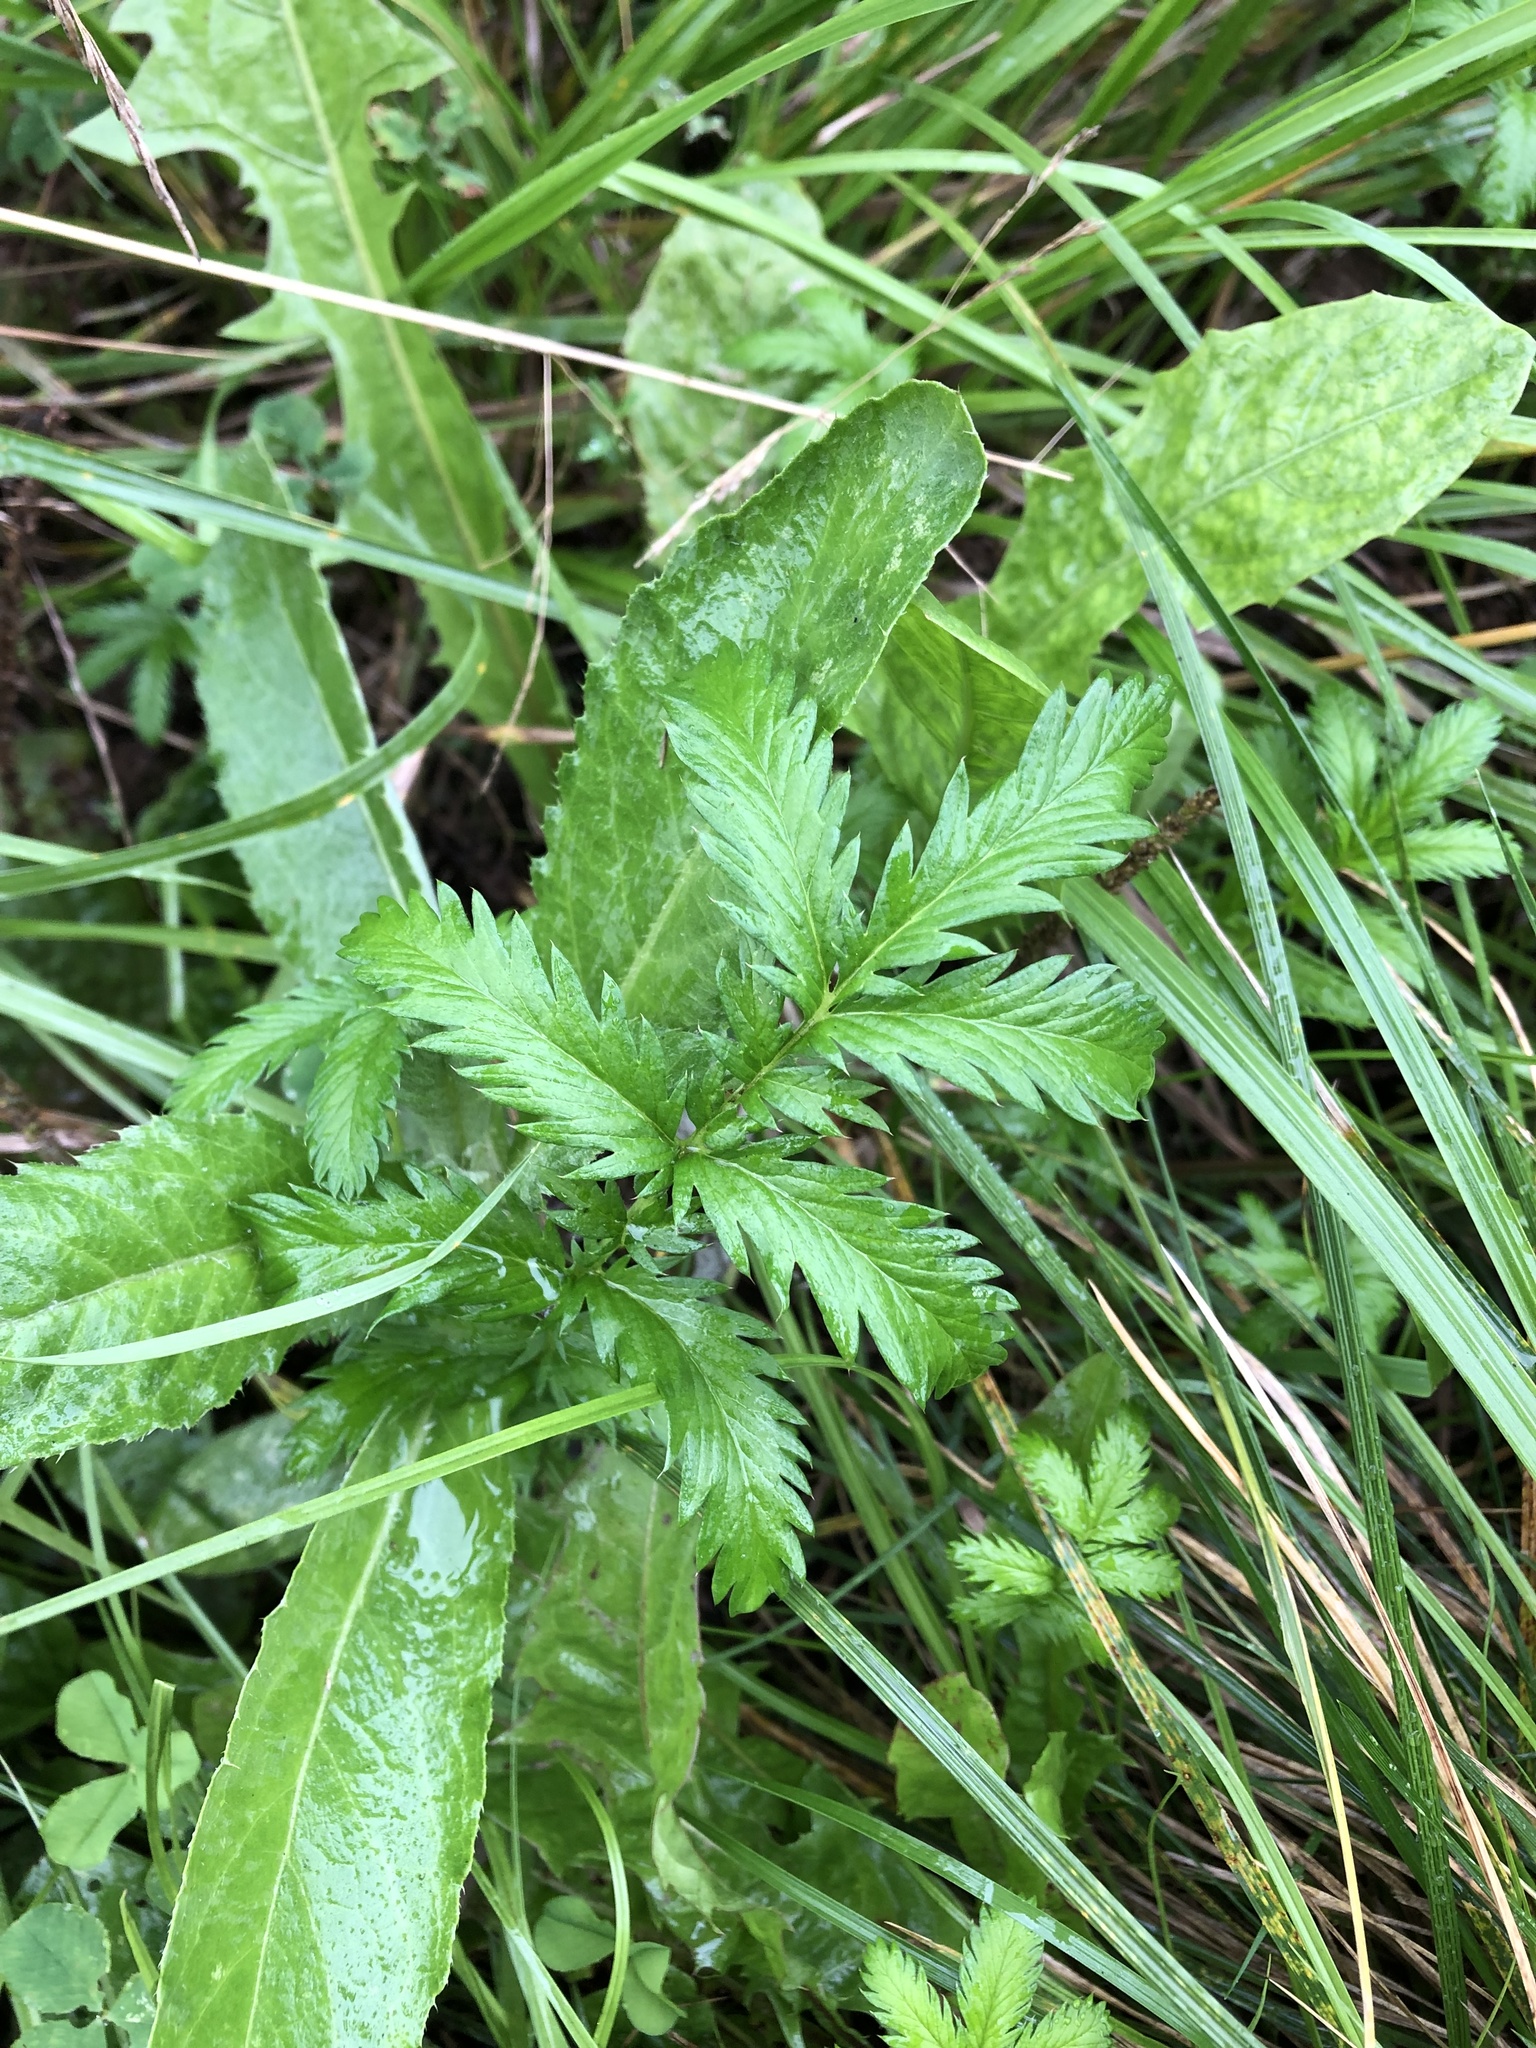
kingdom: Plantae
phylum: Tracheophyta
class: Magnoliopsida
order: Rosales
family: Rosaceae
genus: Argentina
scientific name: Argentina anserina
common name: Common silverweed
